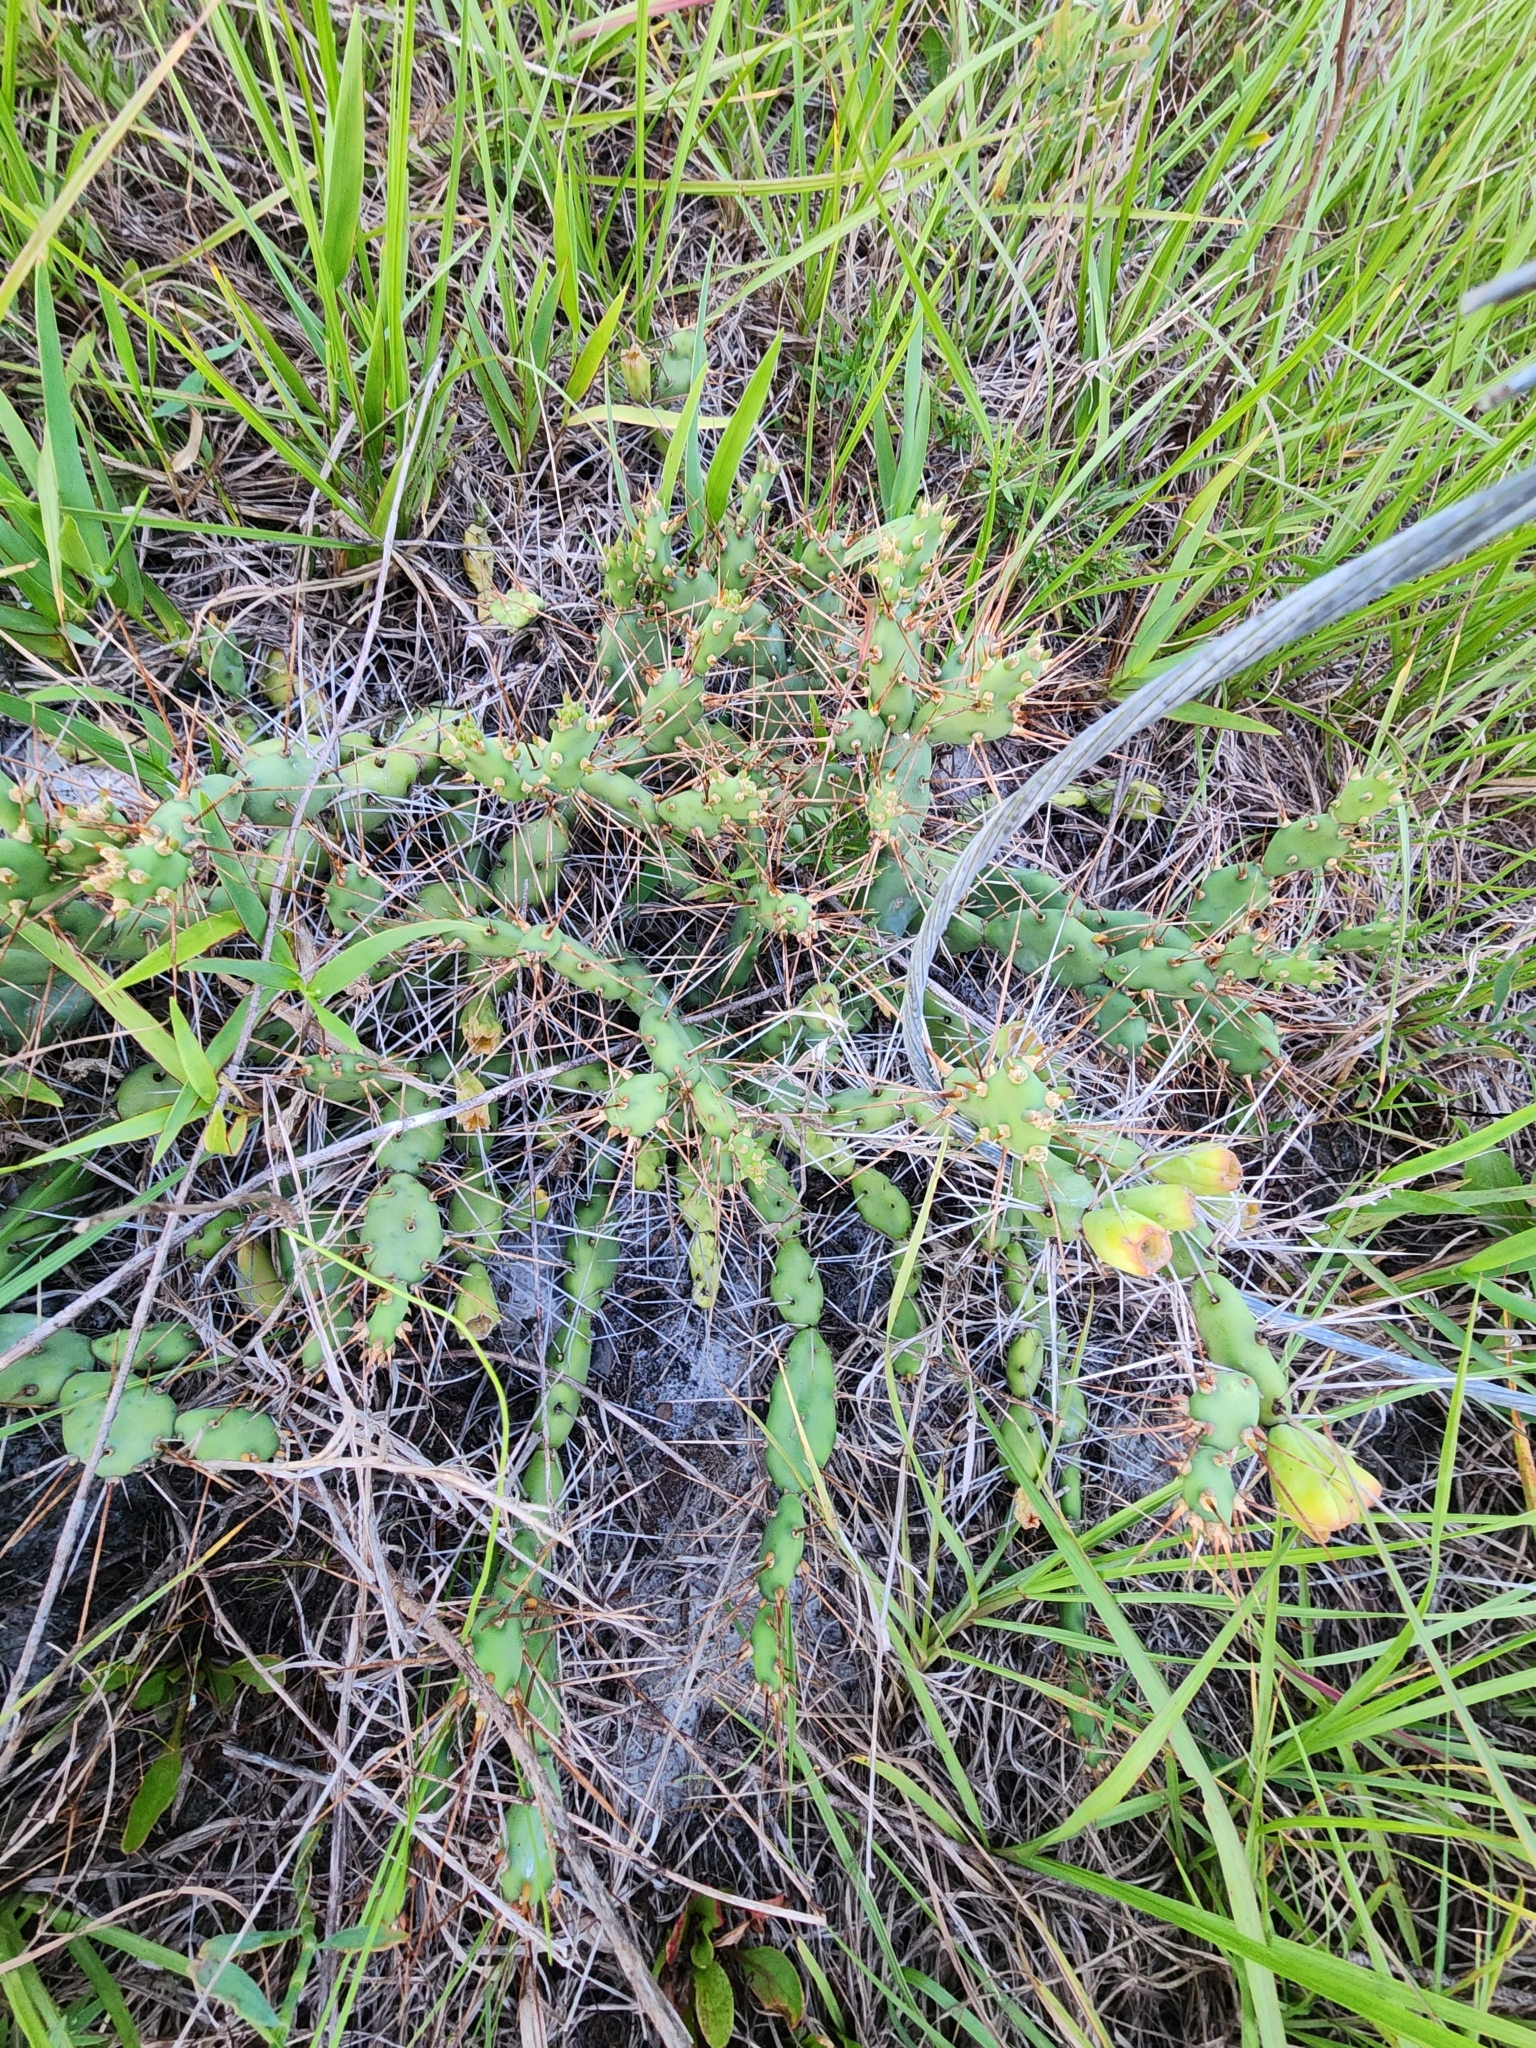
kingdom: Plantae
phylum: Tracheophyta
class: Magnoliopsida
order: Caryophyllales
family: Cactaceae
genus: Opuntia
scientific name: Opuntia drummondii
